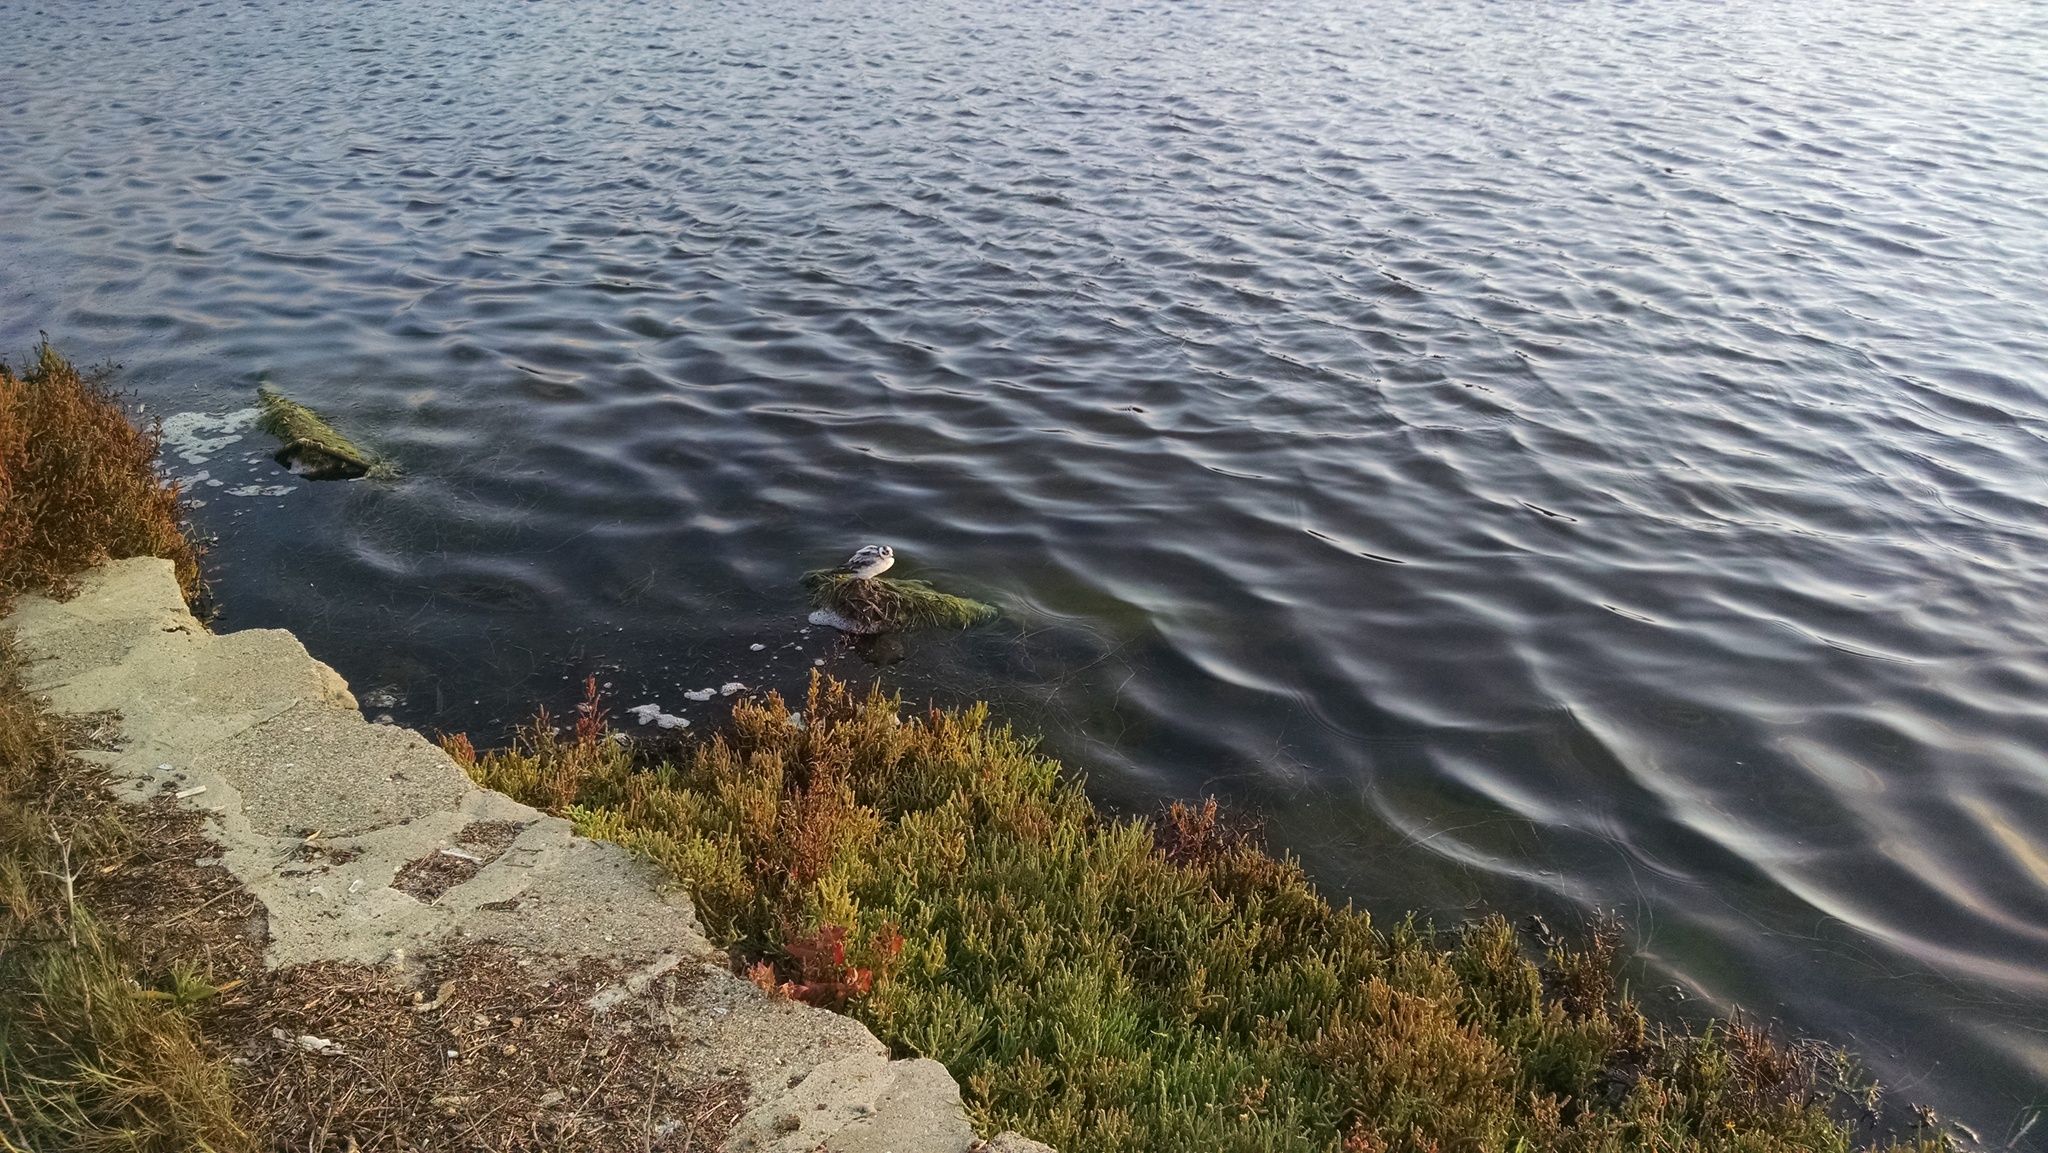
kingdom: Animalia
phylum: Chordata
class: Aves
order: Charadriiformes
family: Scolopacidae
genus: Phalaropus
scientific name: Phalaropus lobatus
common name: Red-necked phalarope
